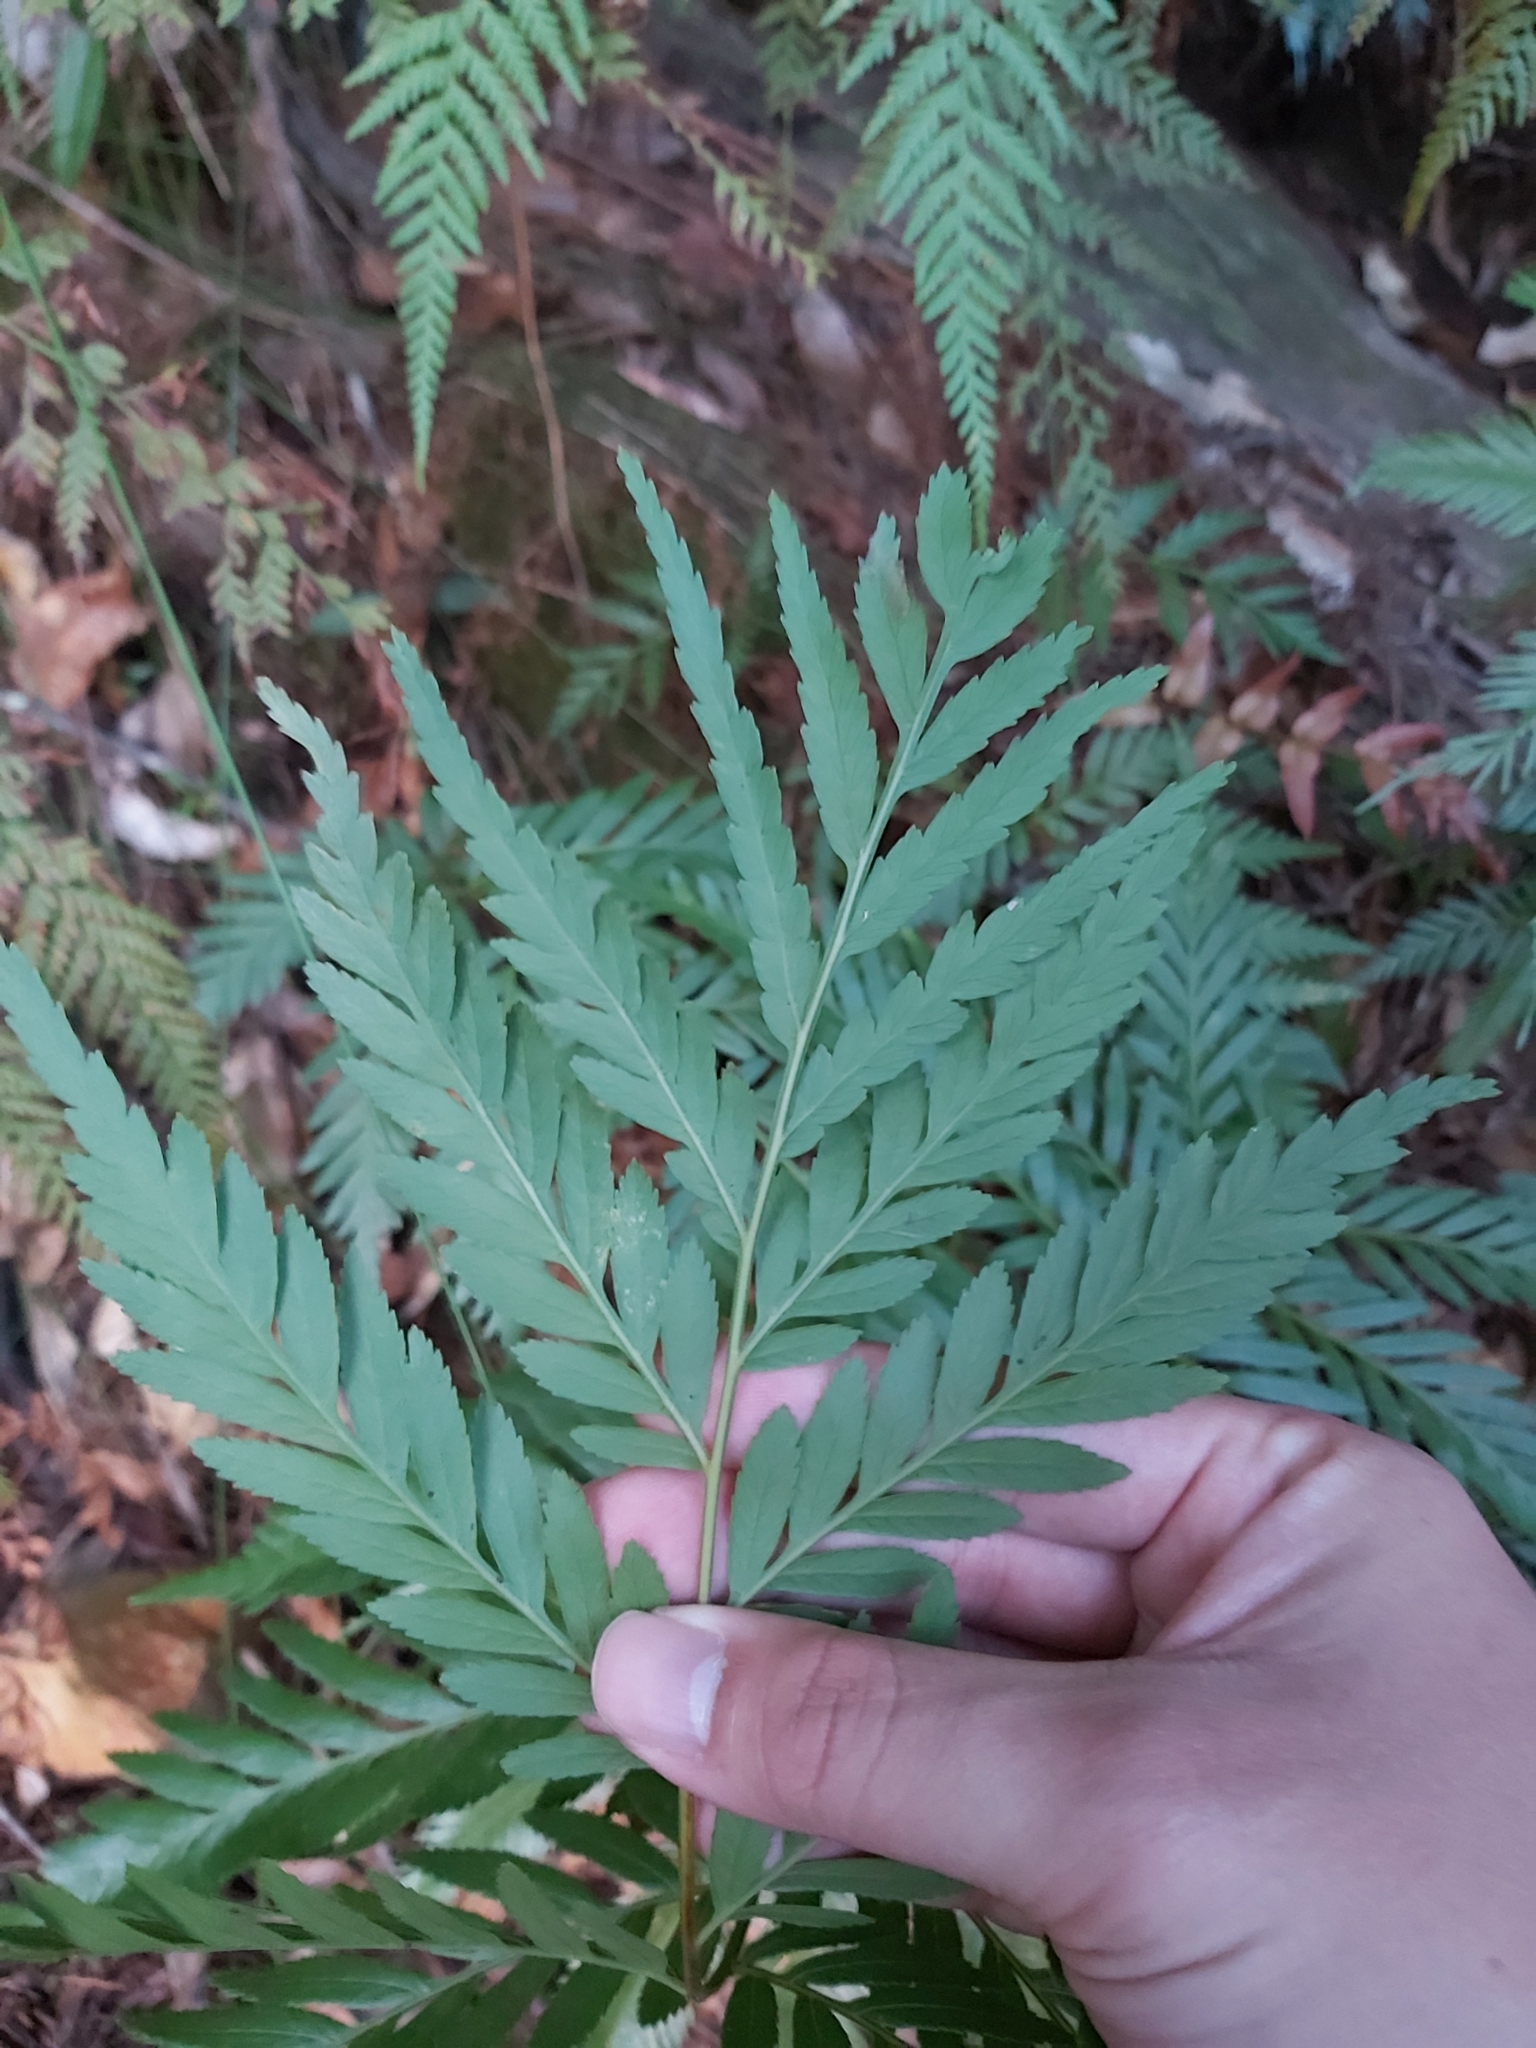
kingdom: Plantae
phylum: Tracheophyta
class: Polypodiopsida
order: Osmundales
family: Osmundaceae
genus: Todea
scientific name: Todea barbara
